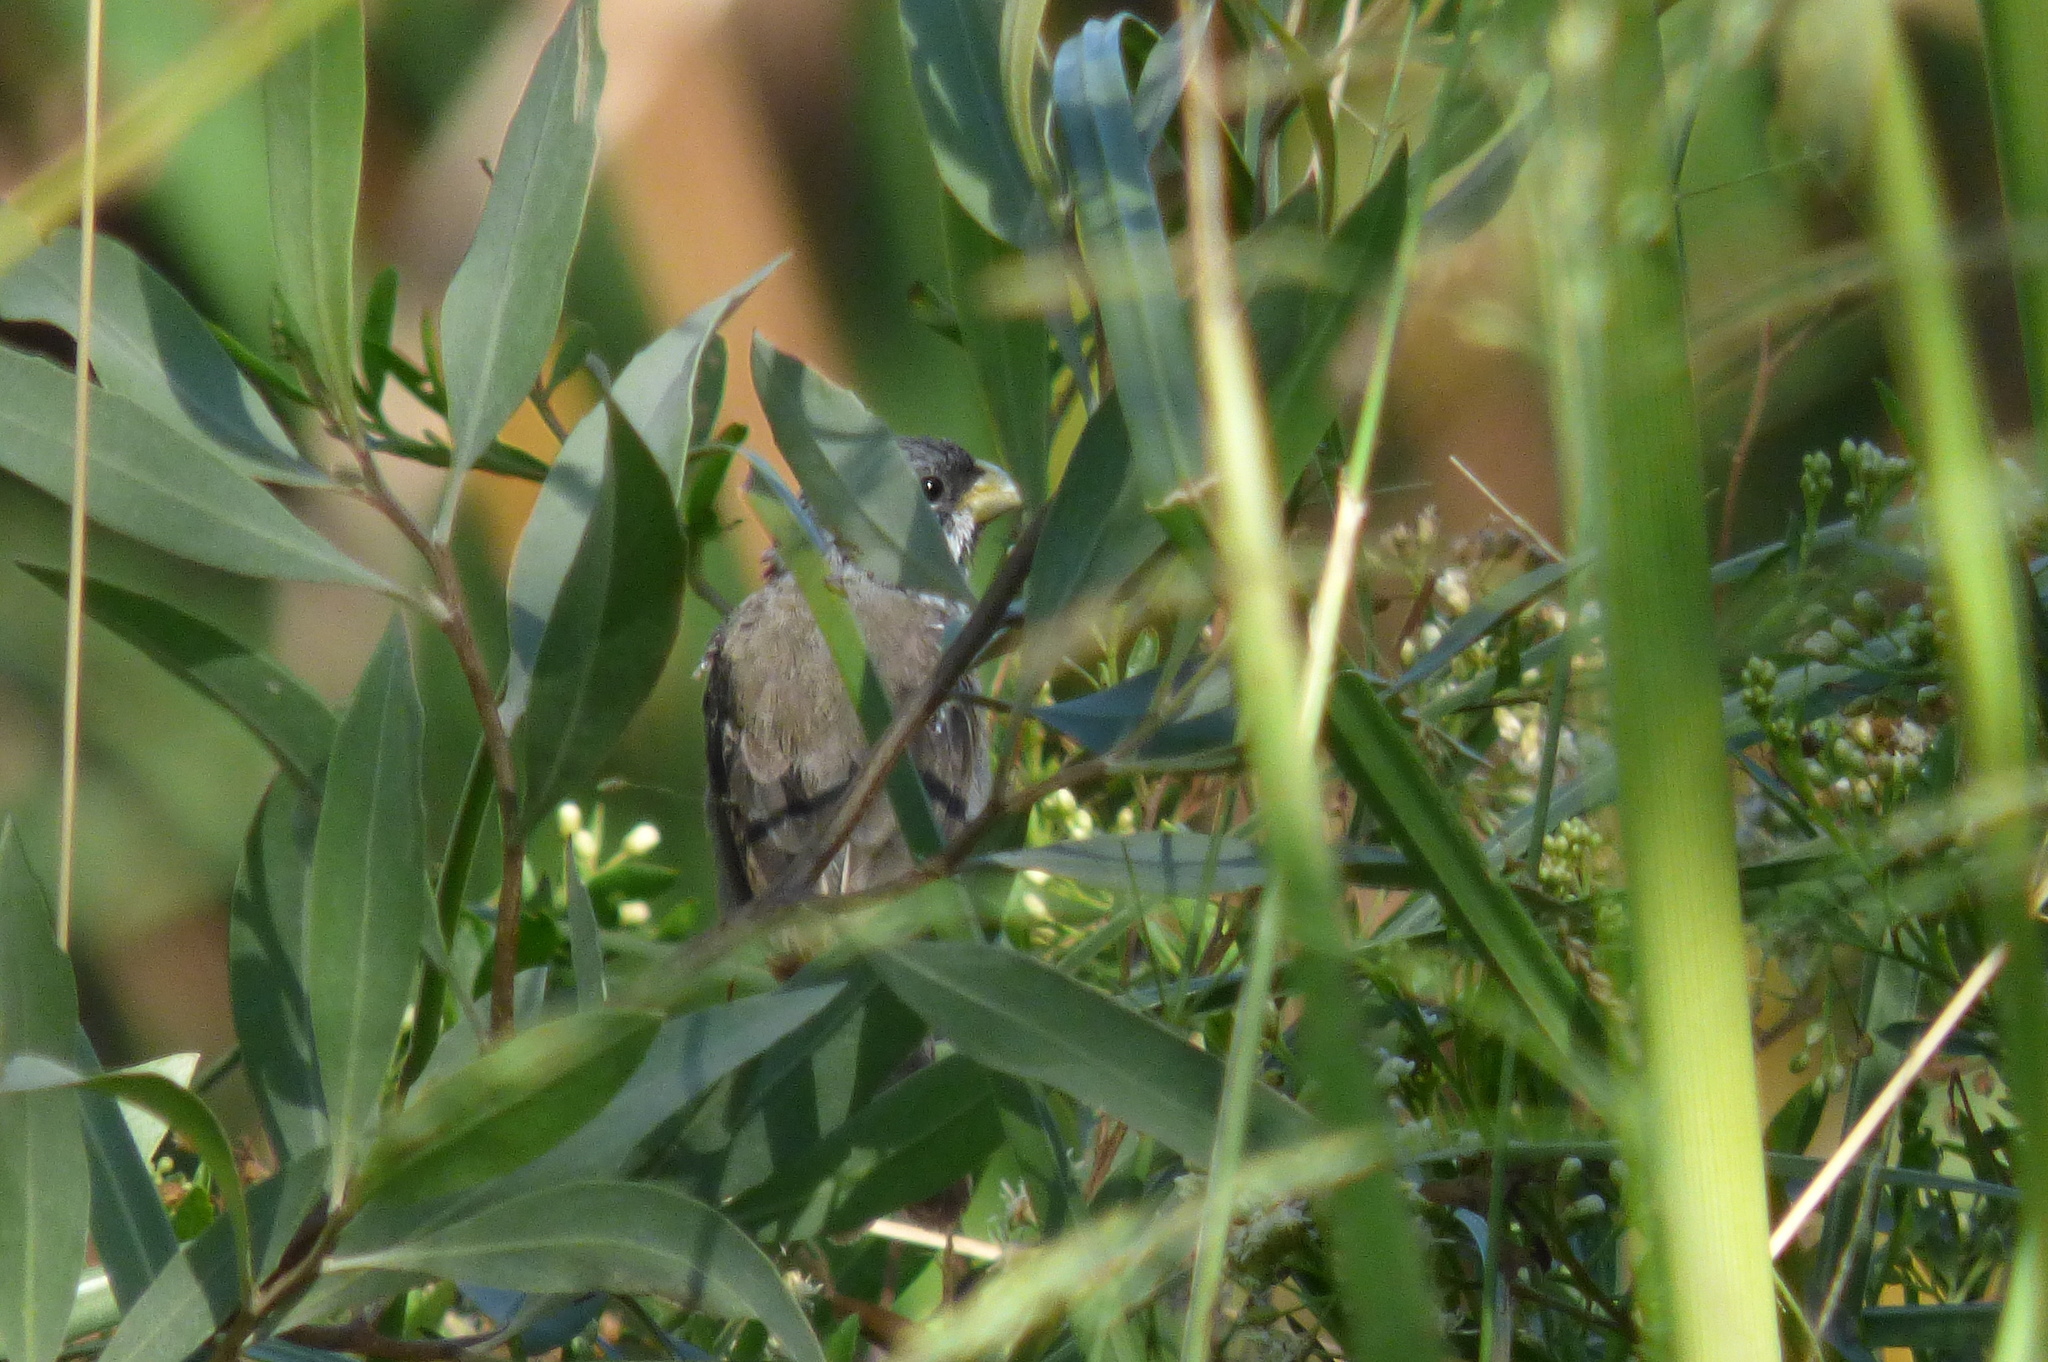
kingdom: Animalia
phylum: Chordata
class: Aves
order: Passeriformes
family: Thraupidae
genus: Sporophila
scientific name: Sporophila caerulescens
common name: Double-collared seedeater
